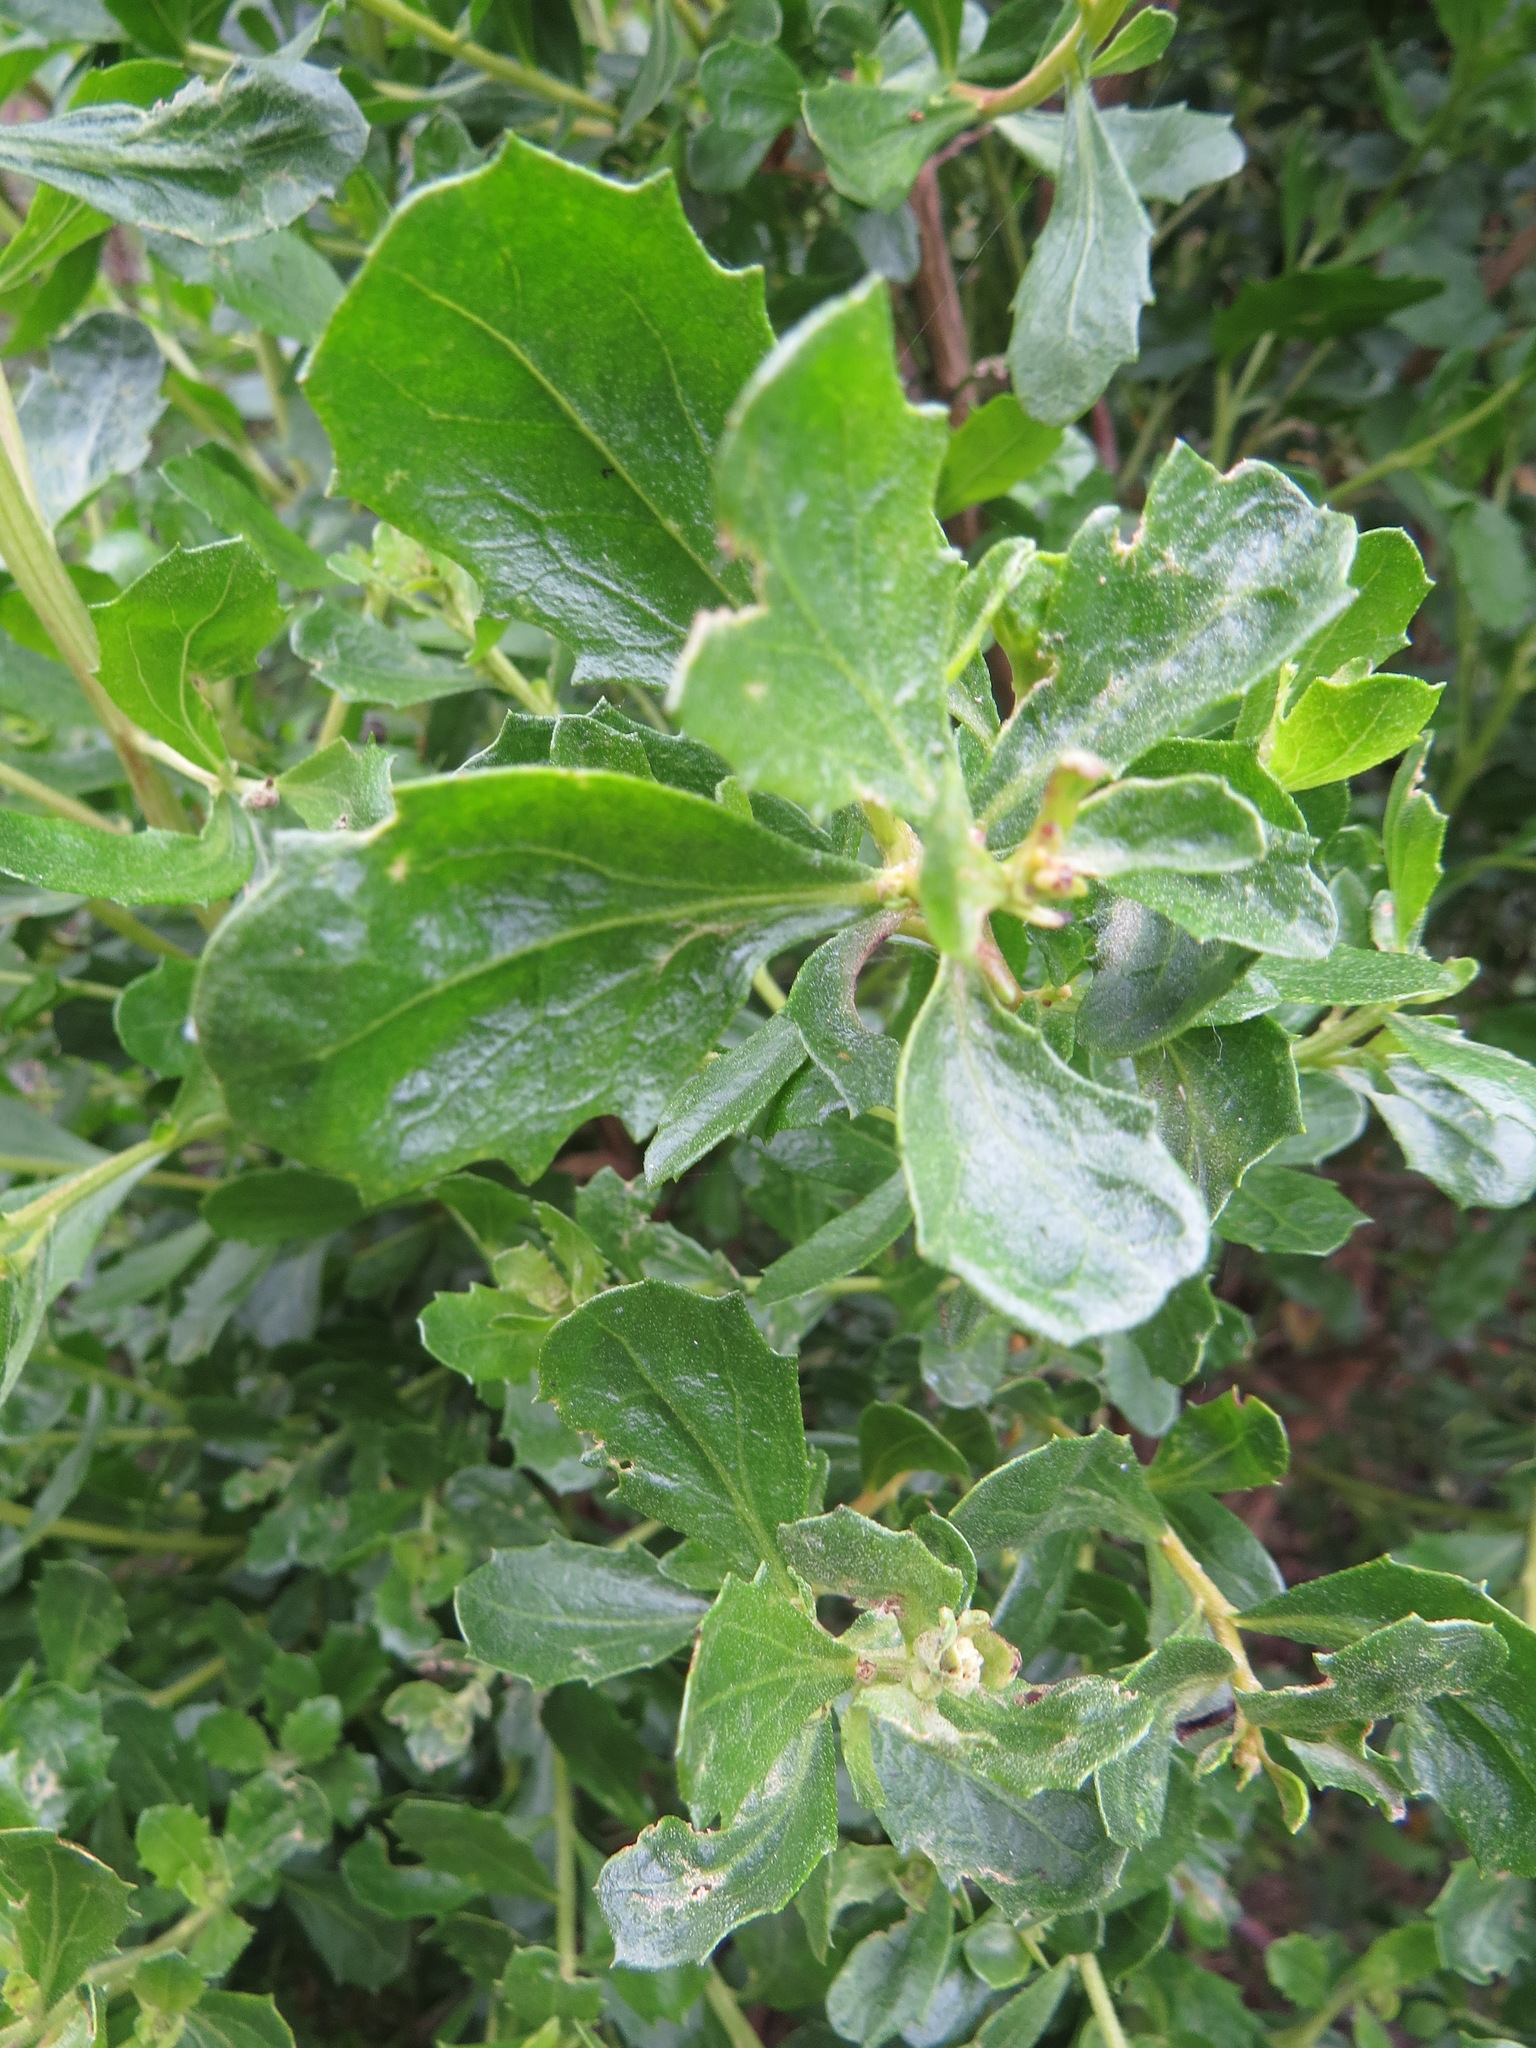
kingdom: Plantae
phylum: Tracheophyta
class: Magnoliopsida
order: Asterales
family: Asteraceae
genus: Baccharis
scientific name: Baccharis pilularis
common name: Coyotebrush
